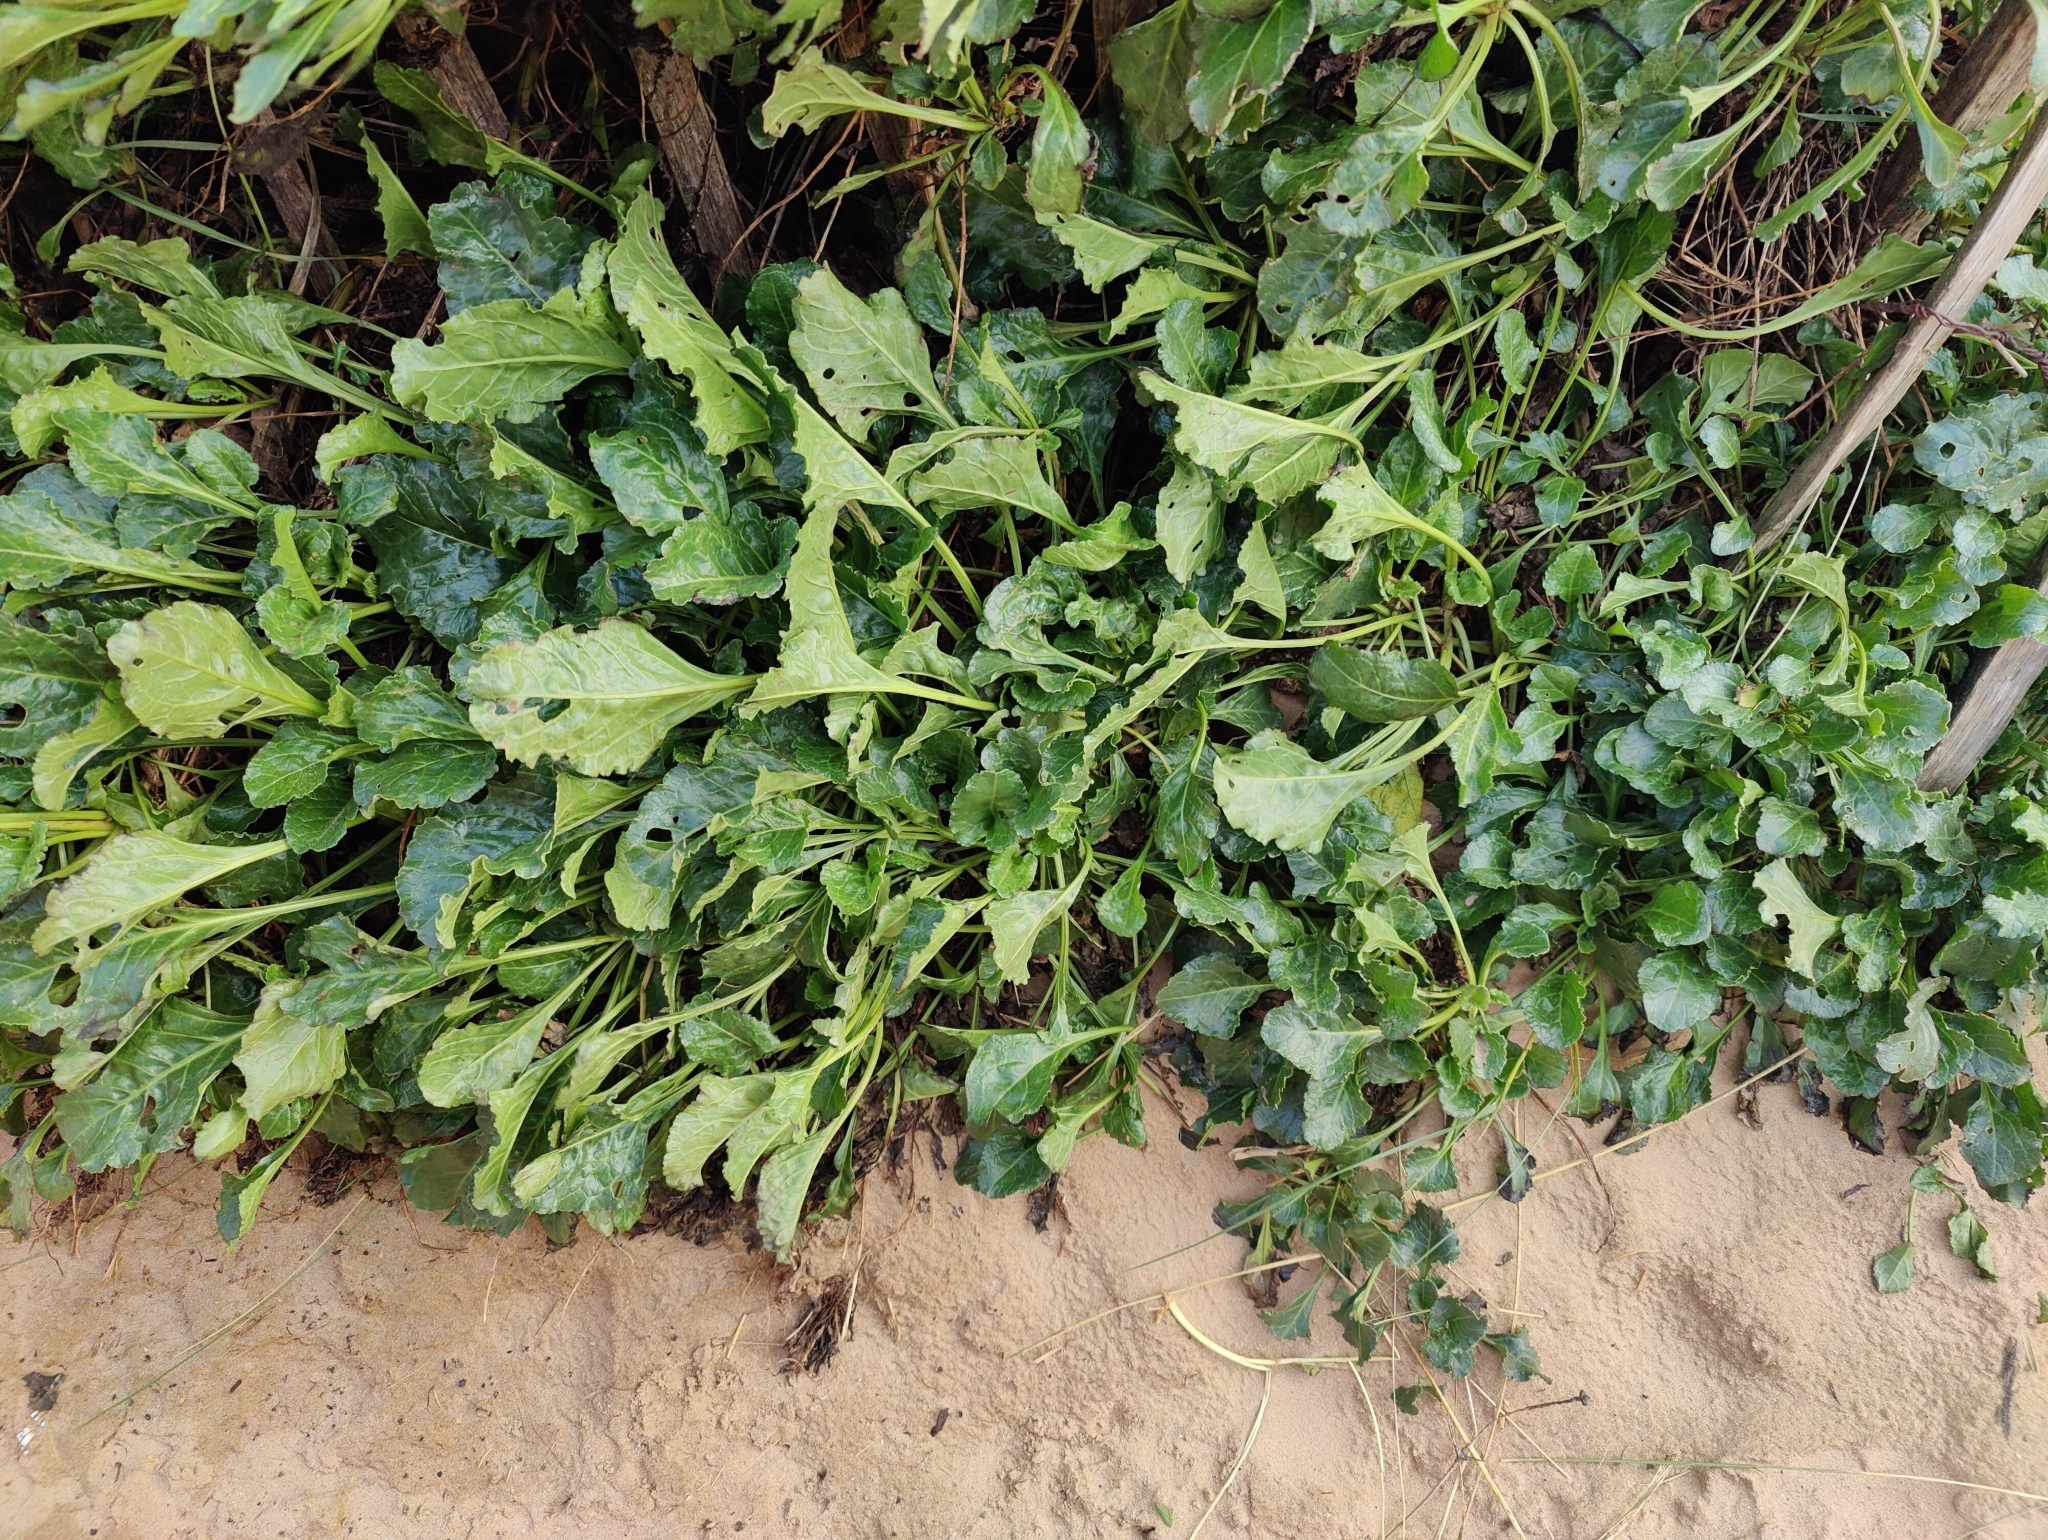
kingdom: Plantae
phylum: Tracheophyta
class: Magnoliopsida
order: Caryophyllales
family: Amaranthaceae
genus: Beta
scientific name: Beta vulgaris
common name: Beet
